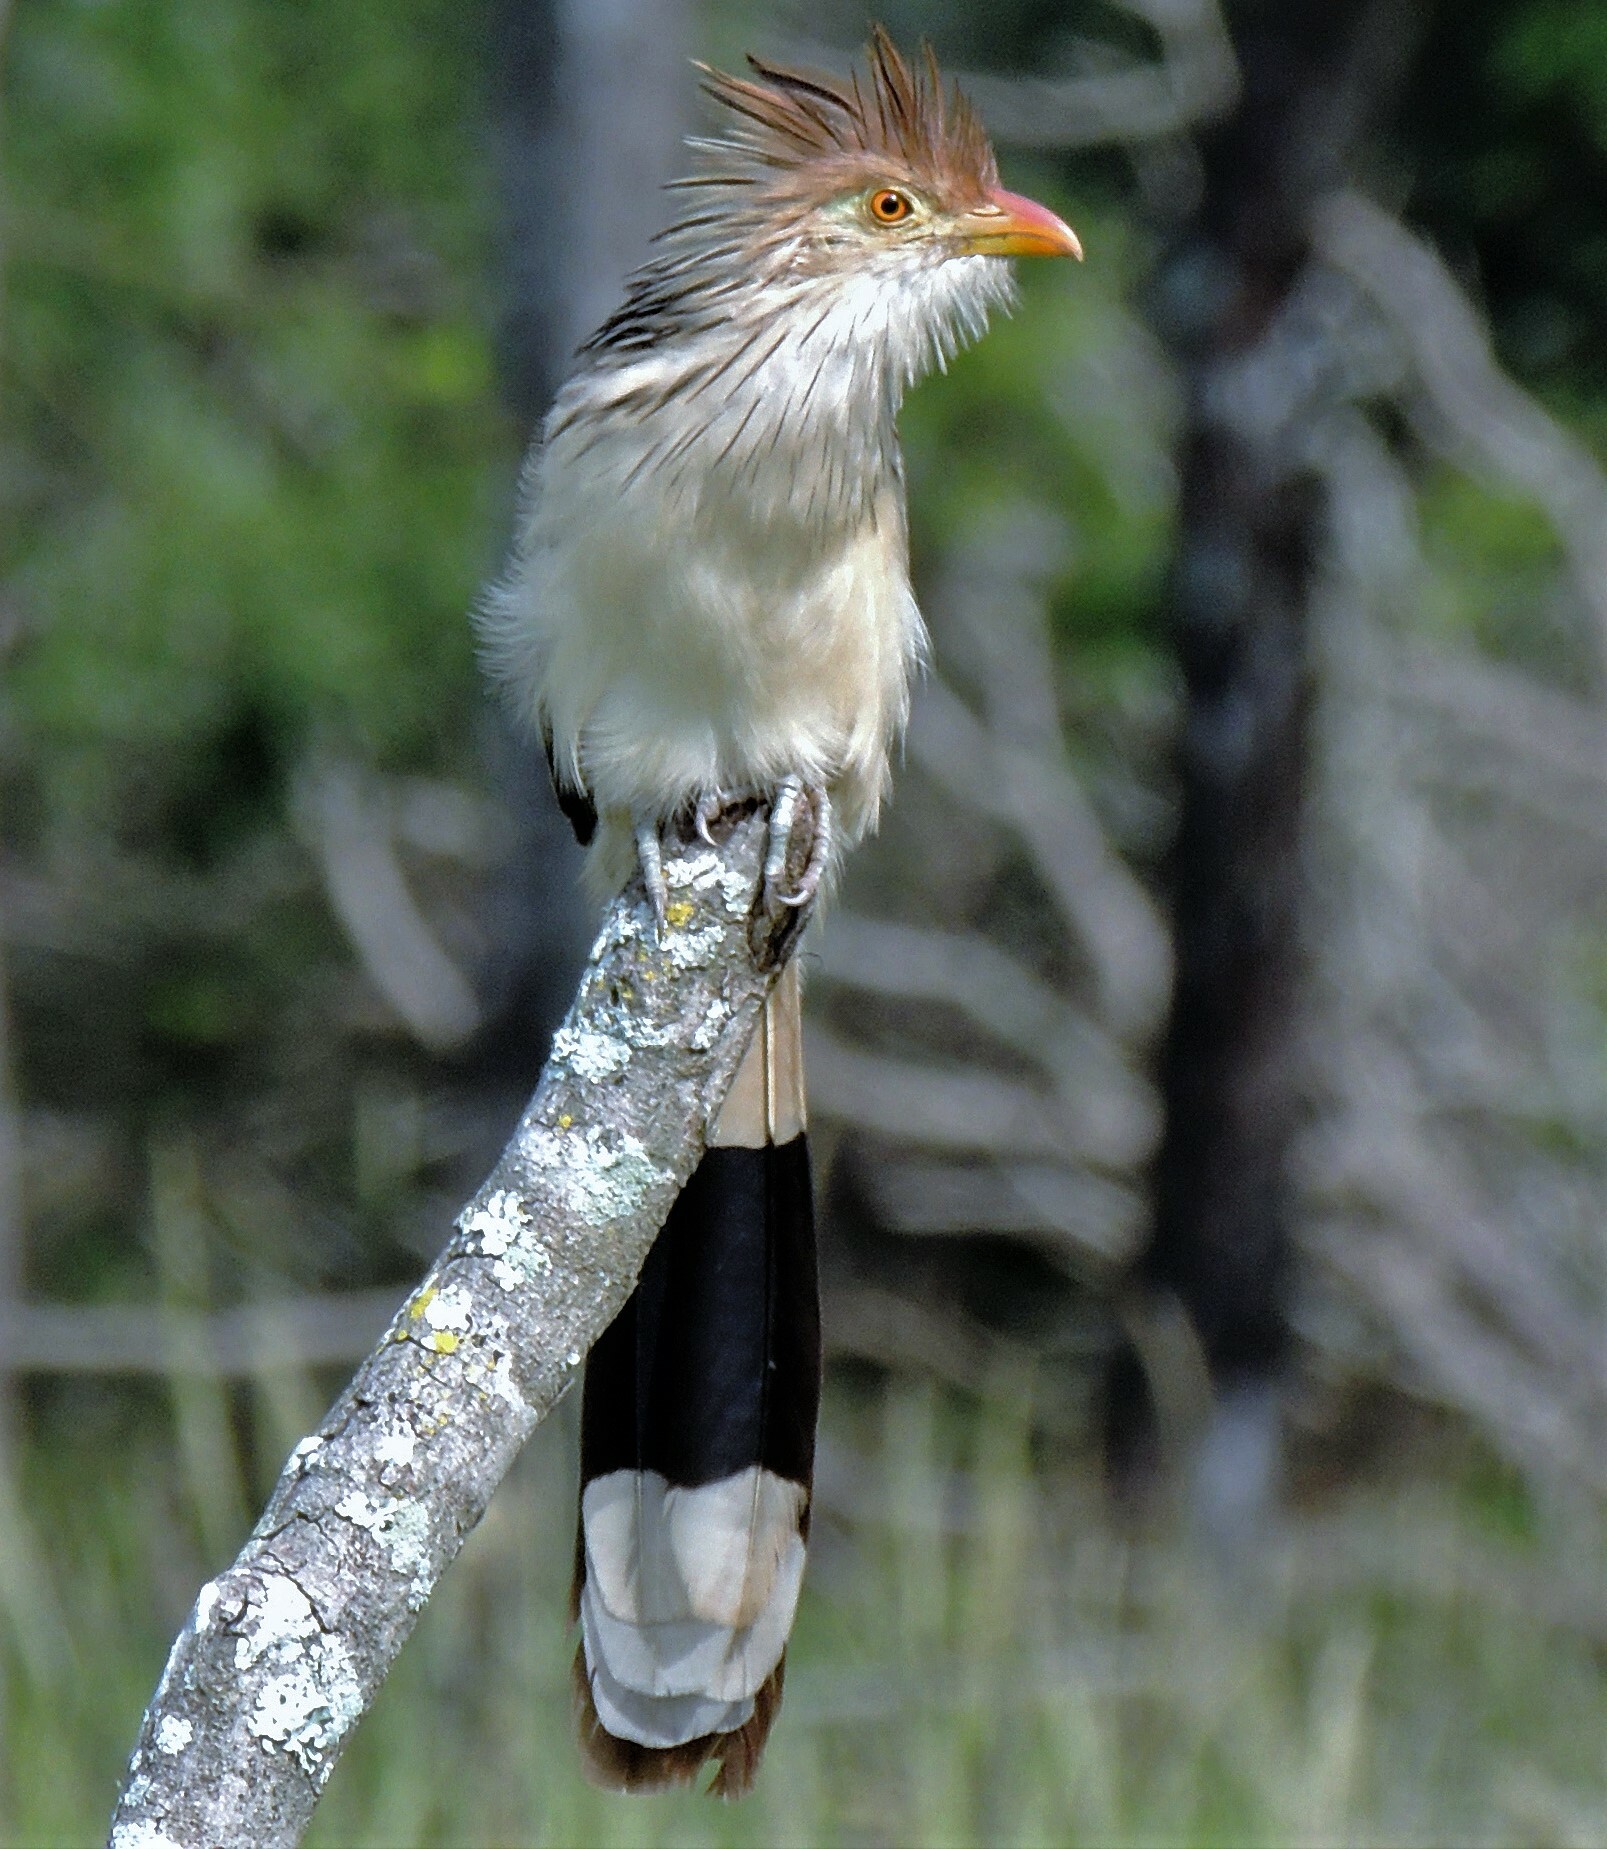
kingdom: Animalia
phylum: Chordata
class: Aves
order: Cuculiformes
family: Cuculidae
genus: Guira
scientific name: Guira guira
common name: Guira cuckoo
